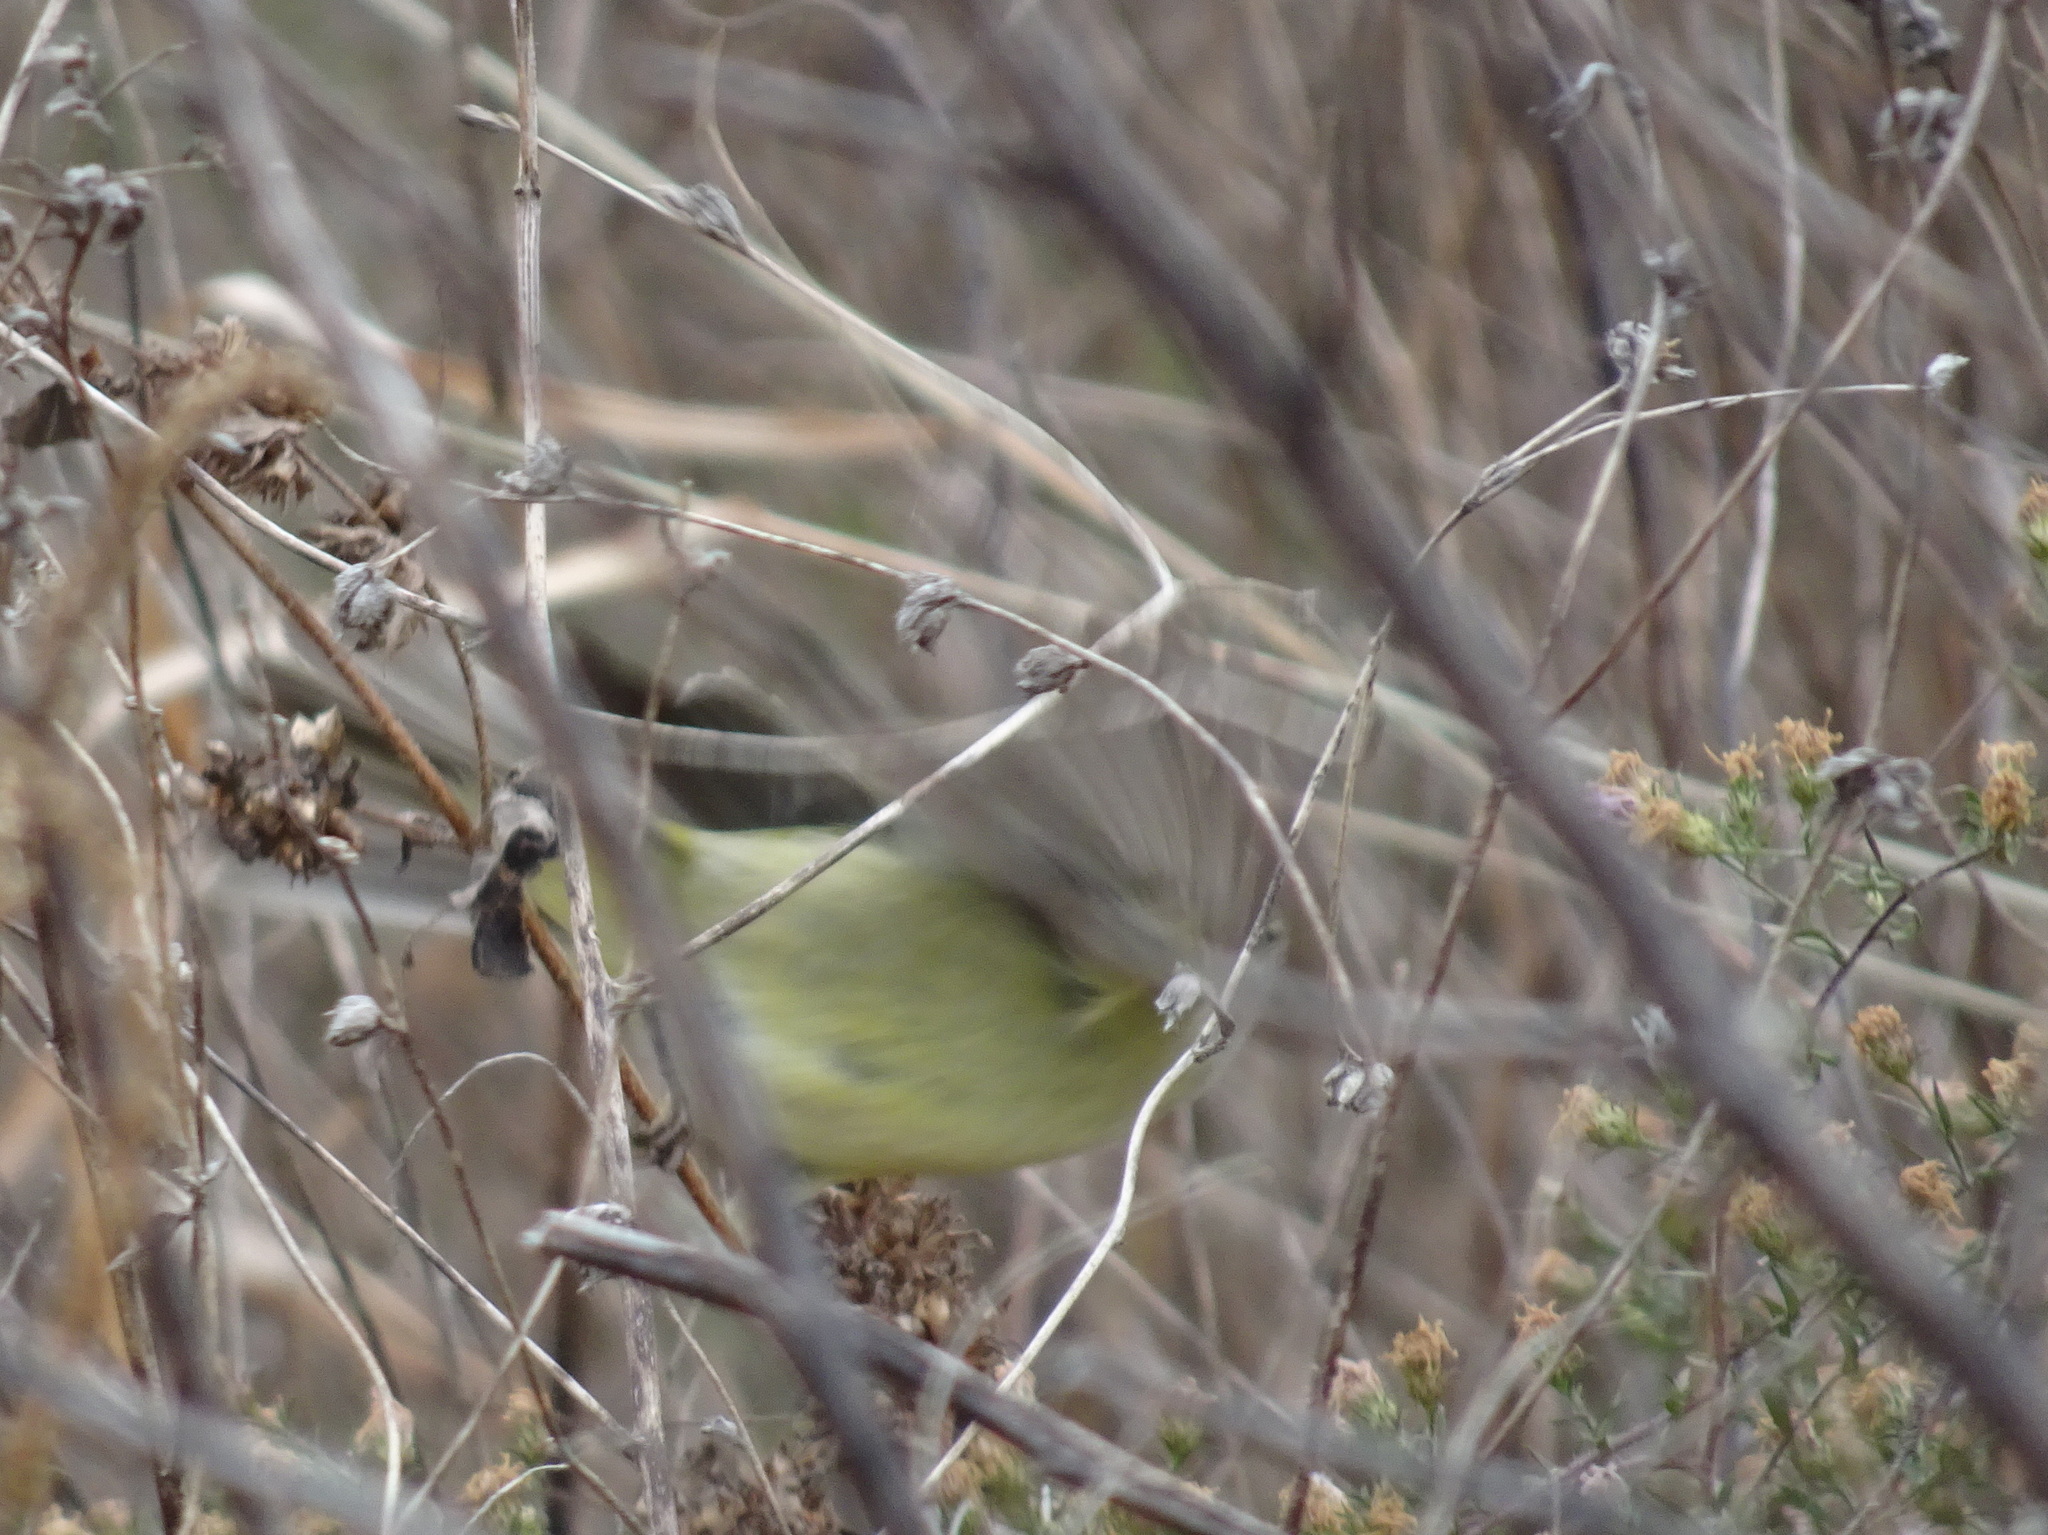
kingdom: Animalia
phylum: Chordata
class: Aves
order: Passeriformes
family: Parulidae
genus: Leiothlypis
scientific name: Leiothlypis celata
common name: Orange-crowned warbler
